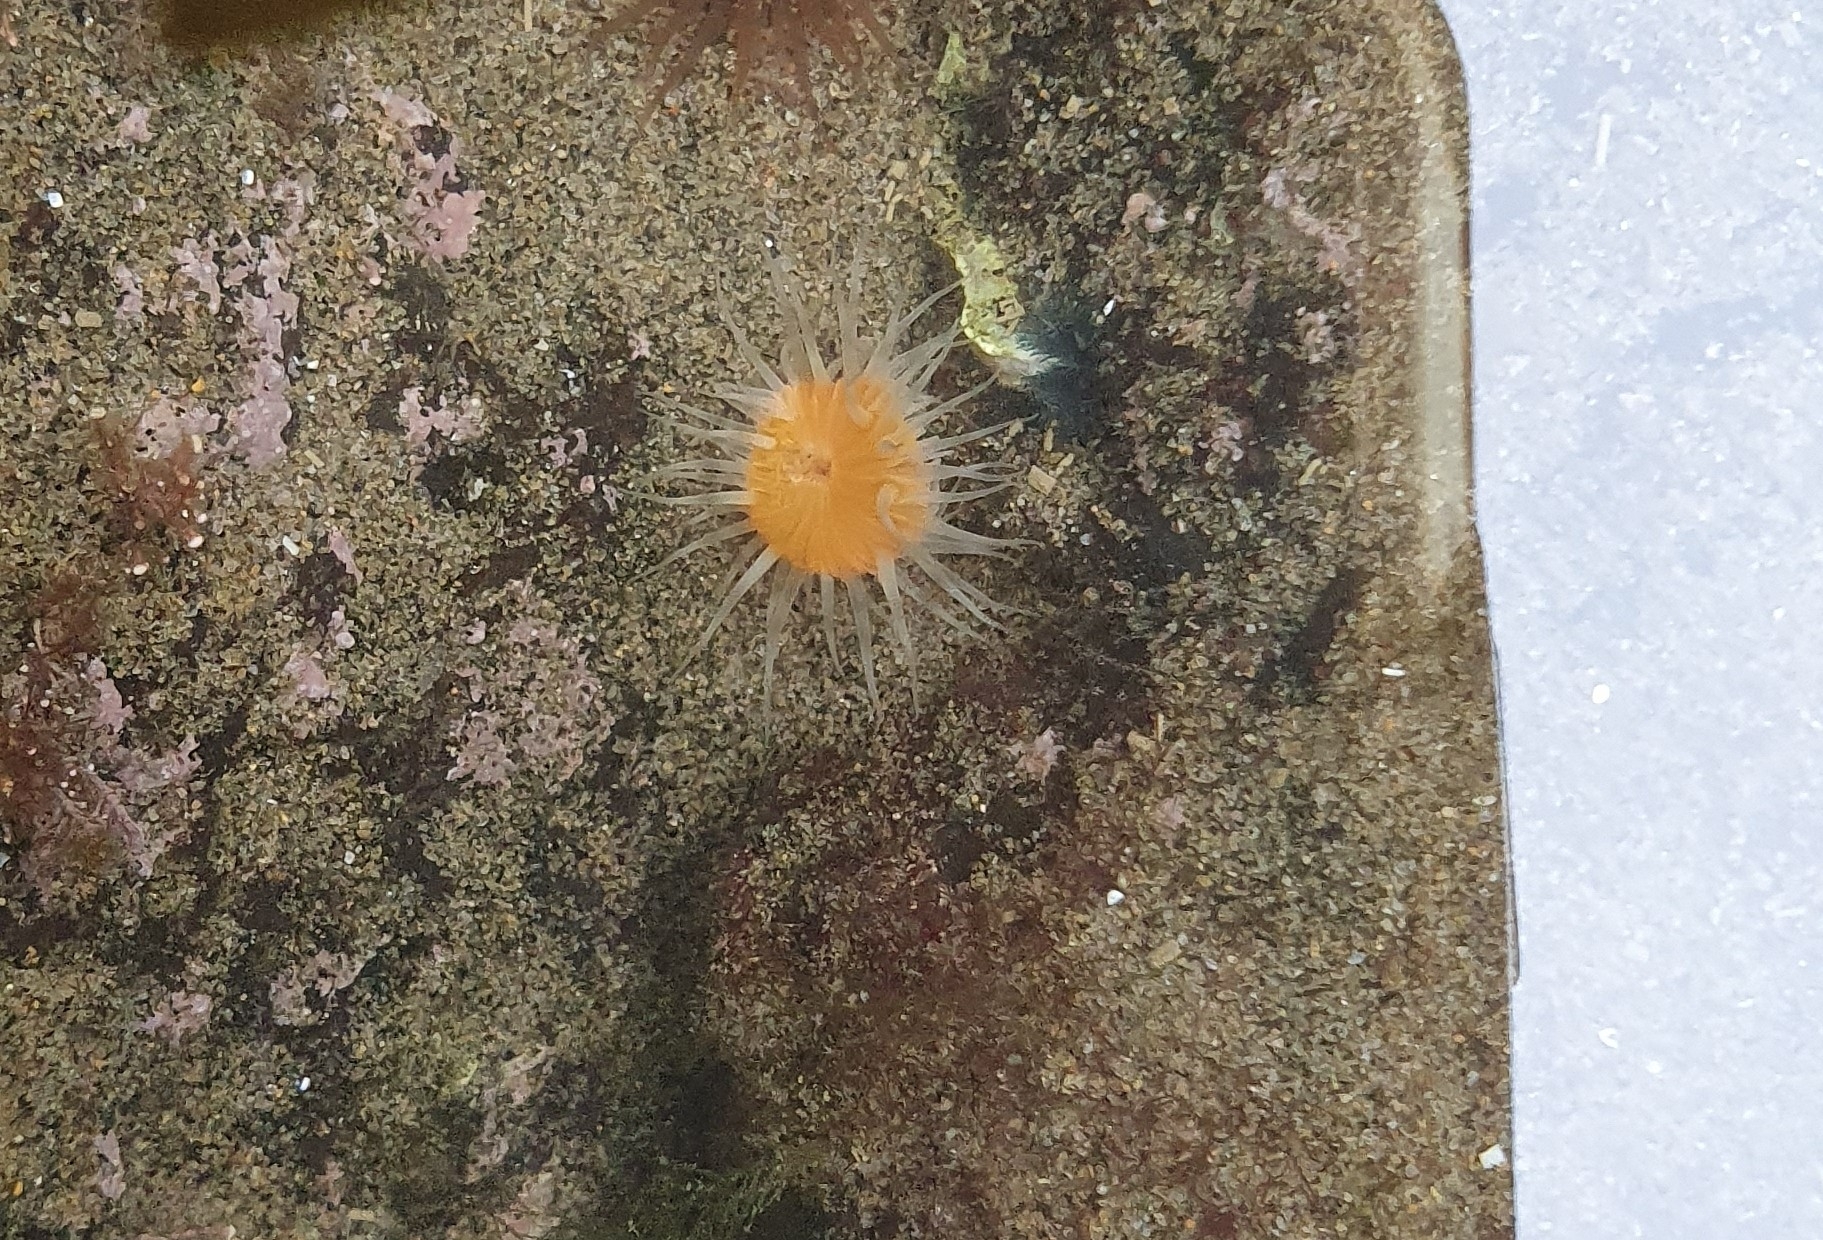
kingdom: Animalia
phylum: Cnidaria
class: Anthozoa
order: Actiniaria
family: Sagartiidae
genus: Anthothoe
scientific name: Anthothoe albocincta
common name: Orange striped anemone
